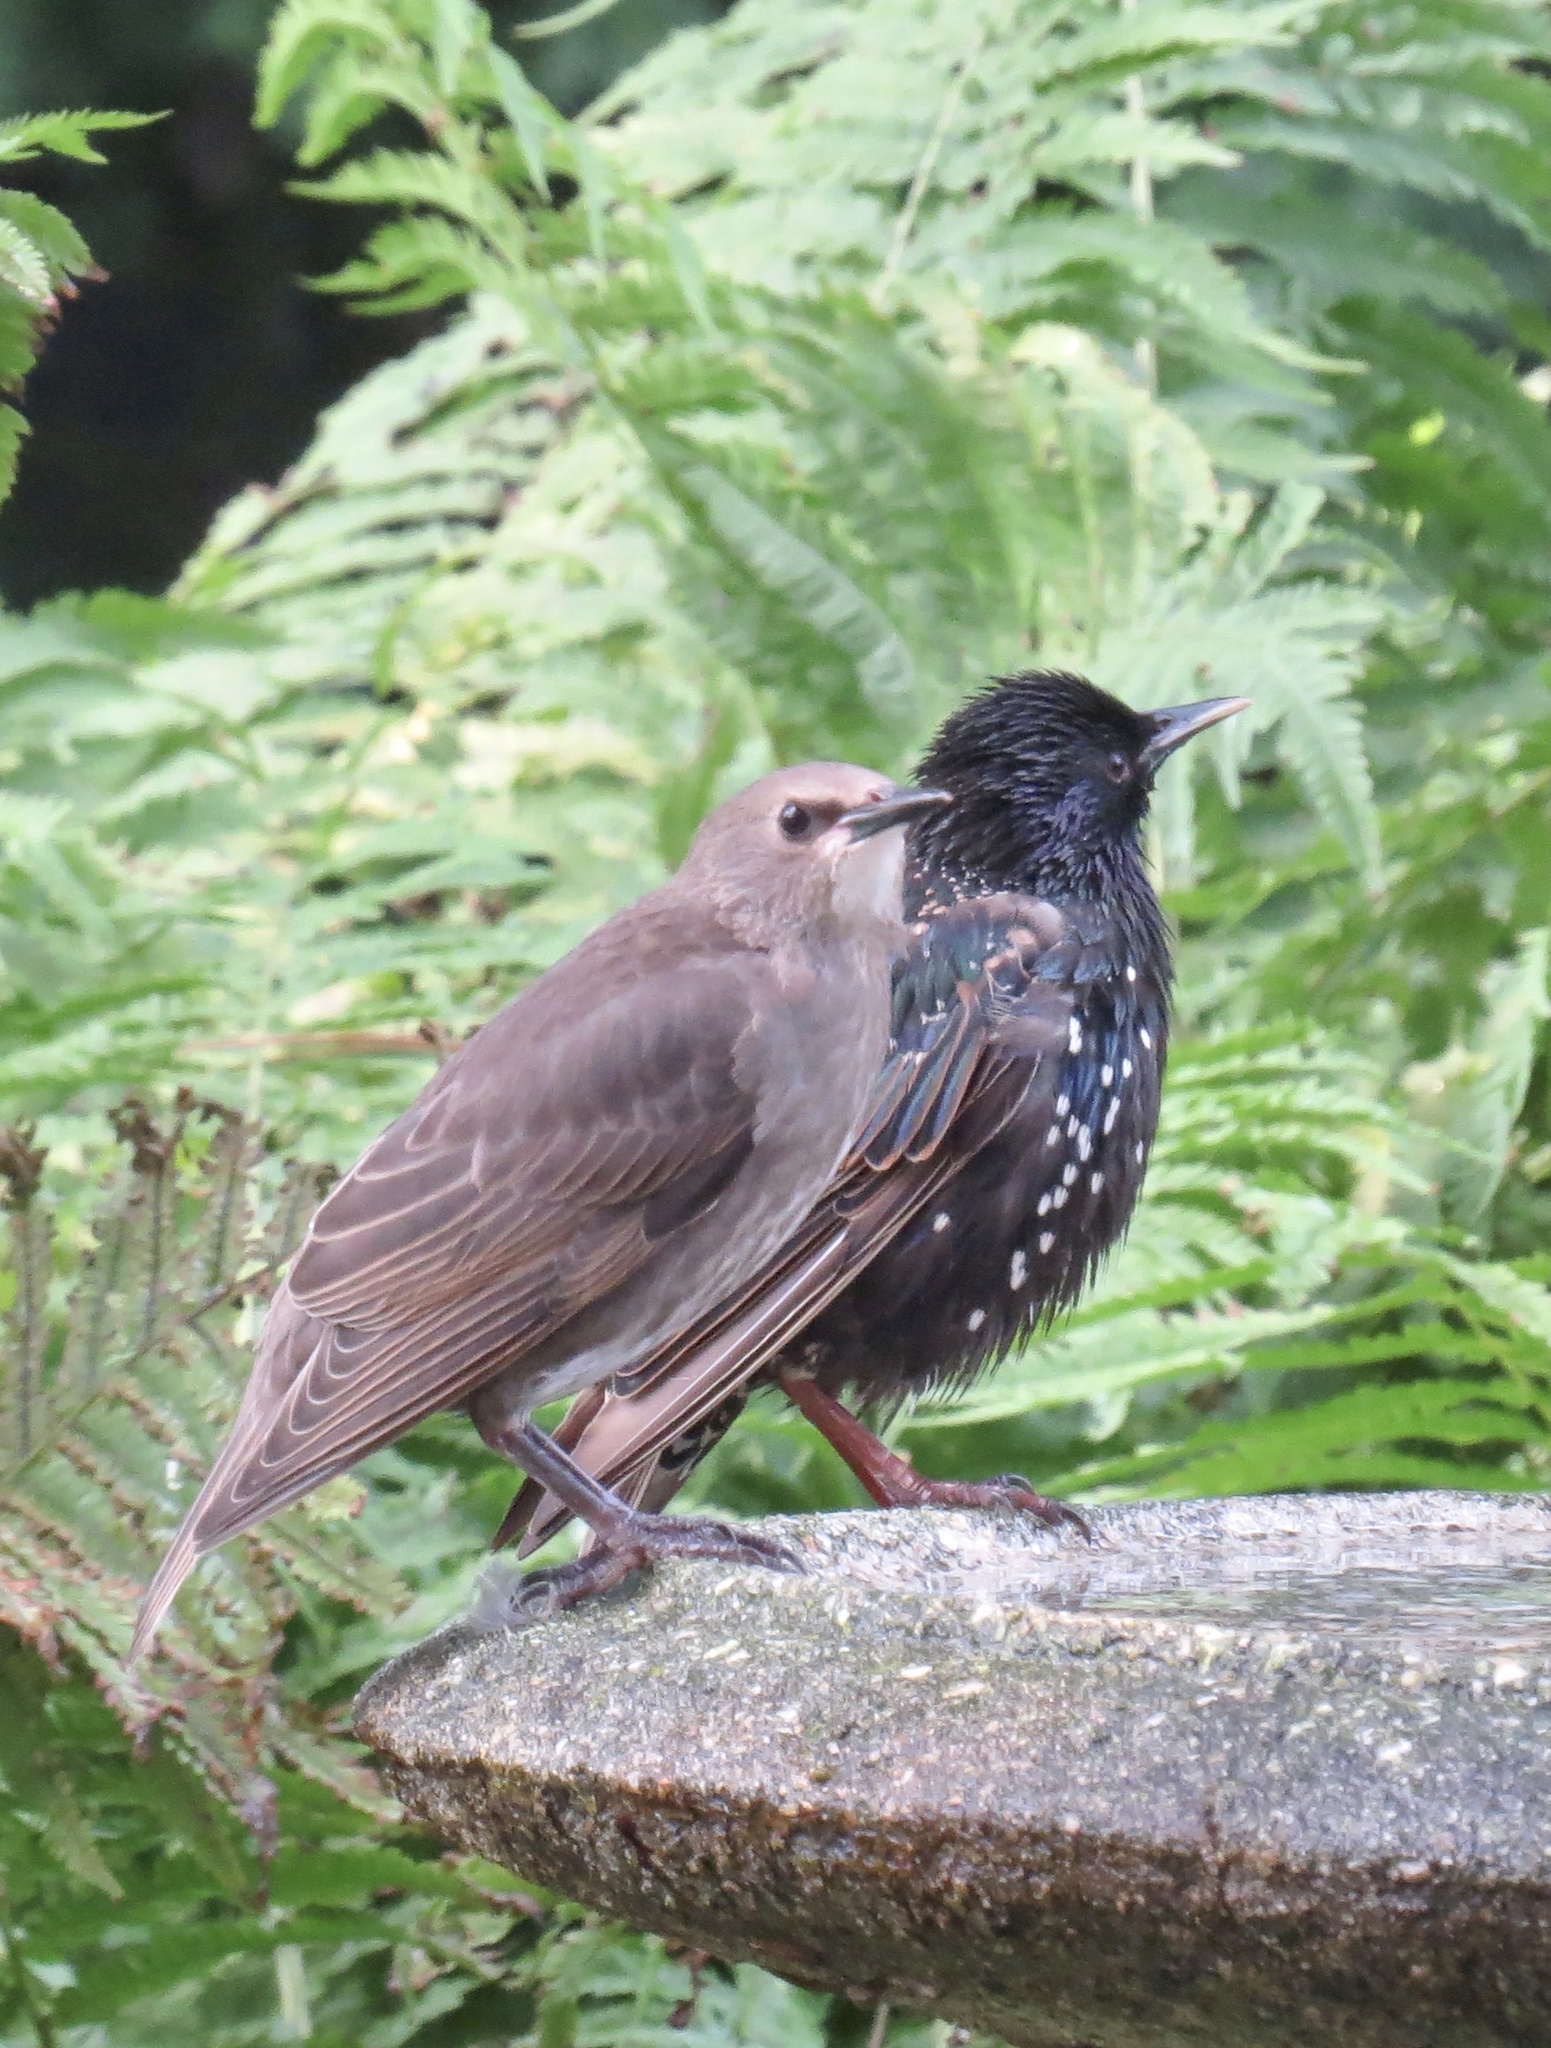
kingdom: Animalia
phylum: Chordata
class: Aves
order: Passeriformes
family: Sturnidae
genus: Sturnus
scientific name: Sturnus vulgaris
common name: Common starling
